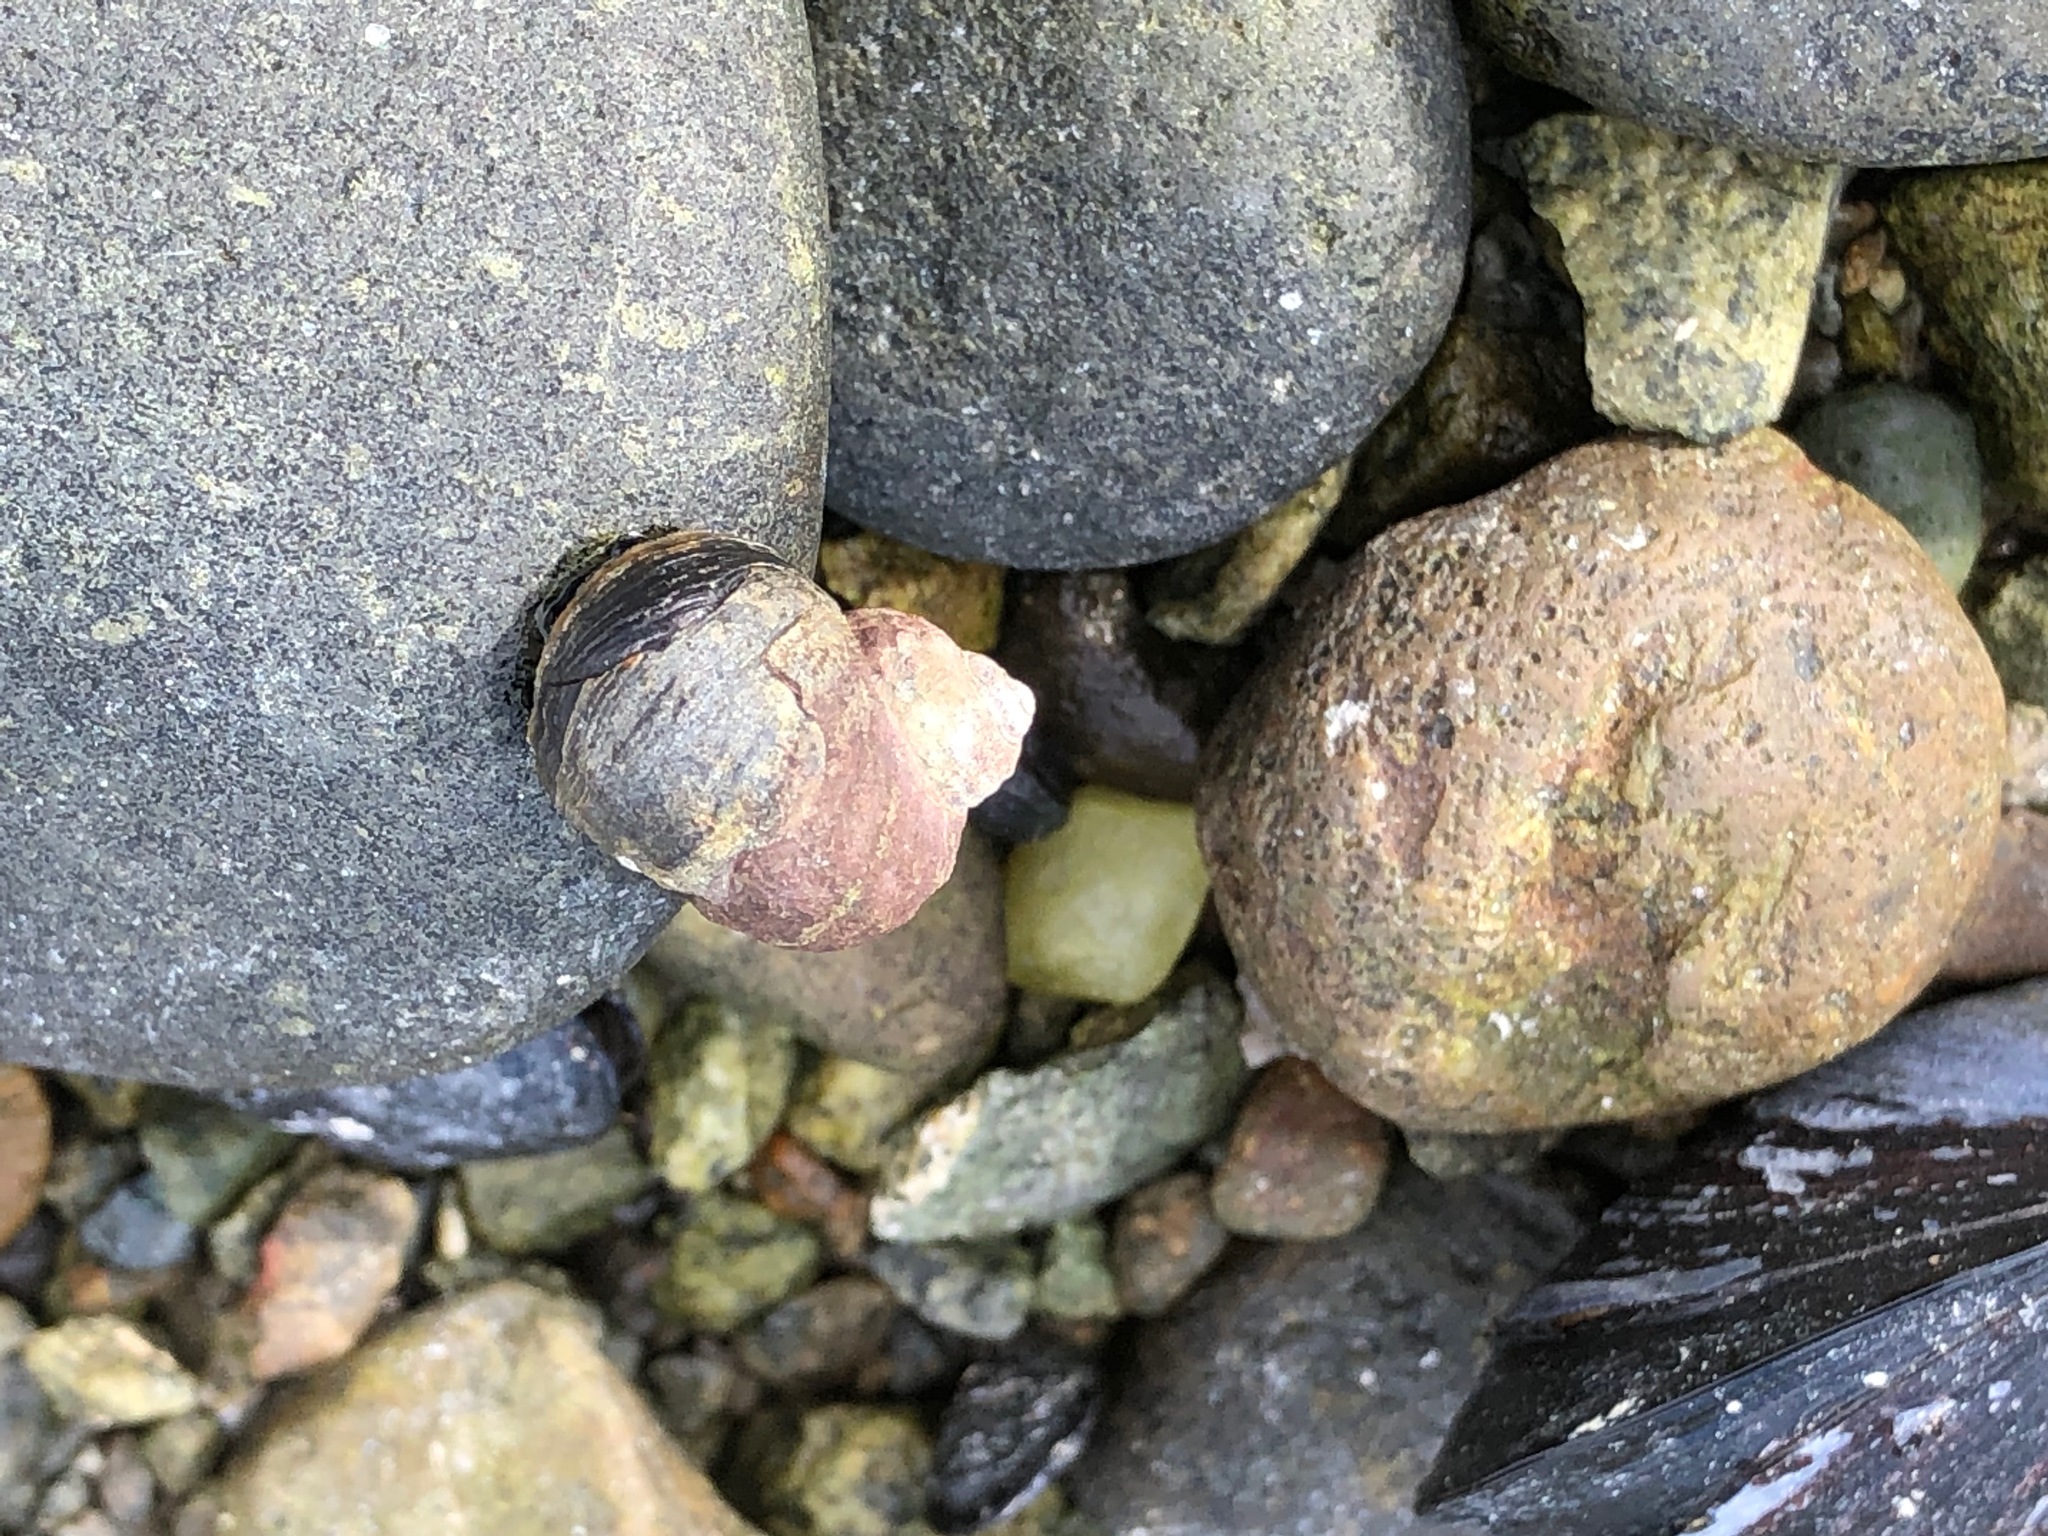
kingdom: Animalia
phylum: Mollusca
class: Gastropoda
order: Littorinimorpha
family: Littorinidae
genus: Littorina
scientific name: Littorina sitkana
